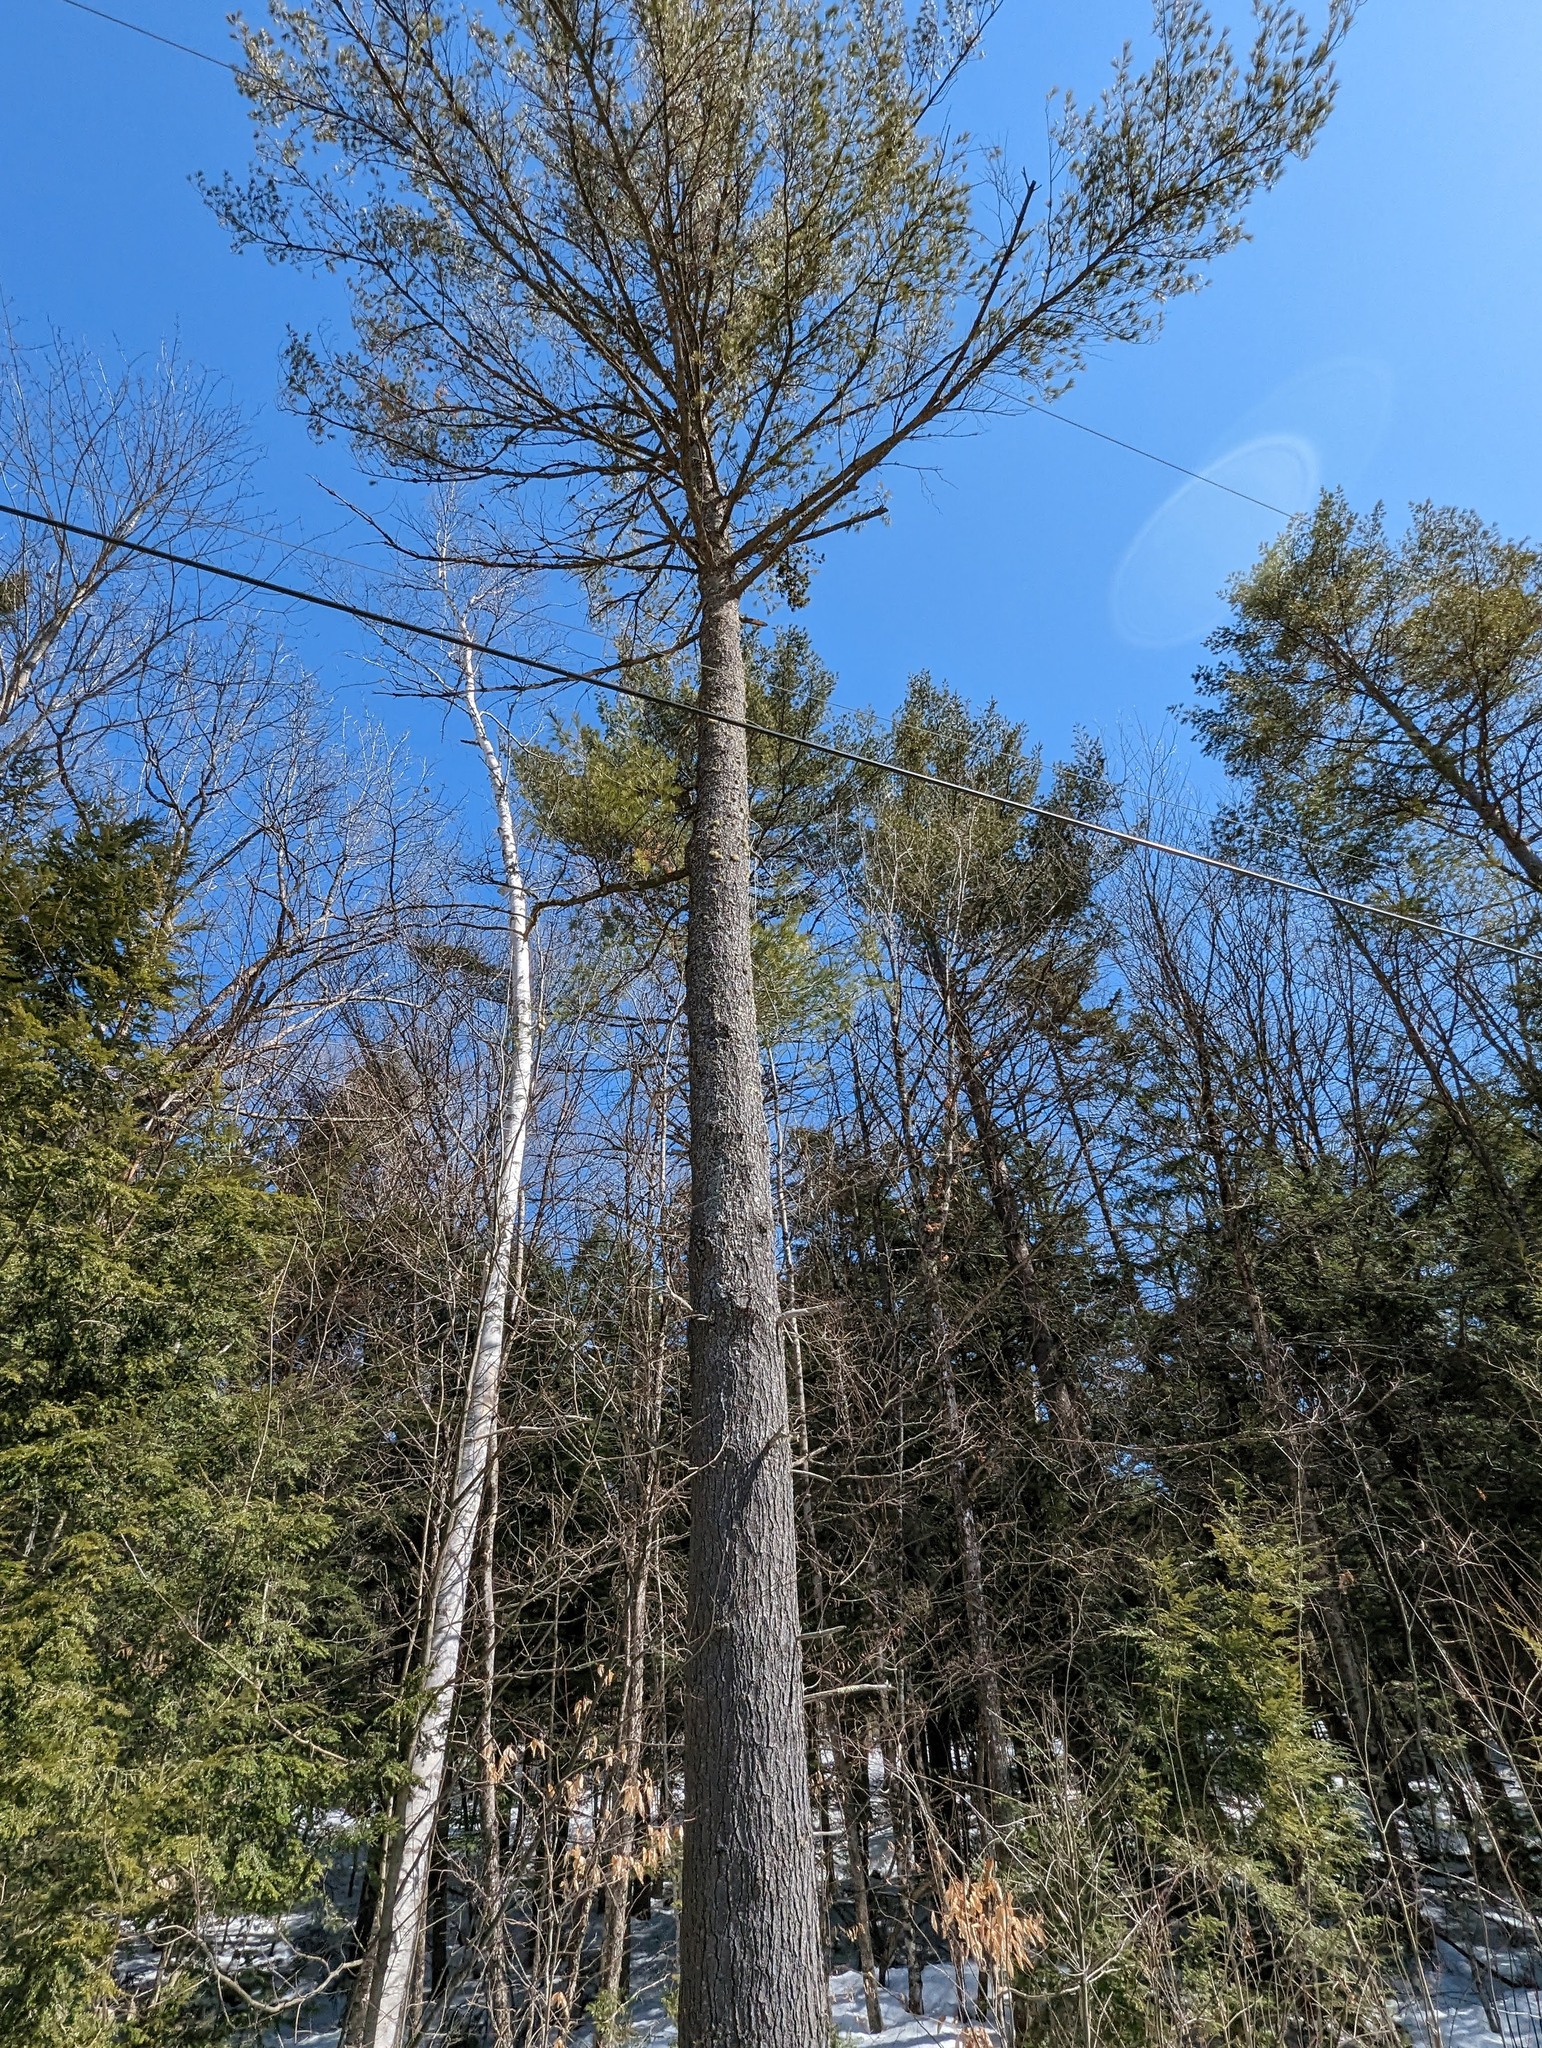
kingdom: Plantae
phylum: Tracheophyta
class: Pinopsida
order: Pinales
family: Pinaceae
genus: Pinus
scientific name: Pinus strobus
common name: Weymouth pine
